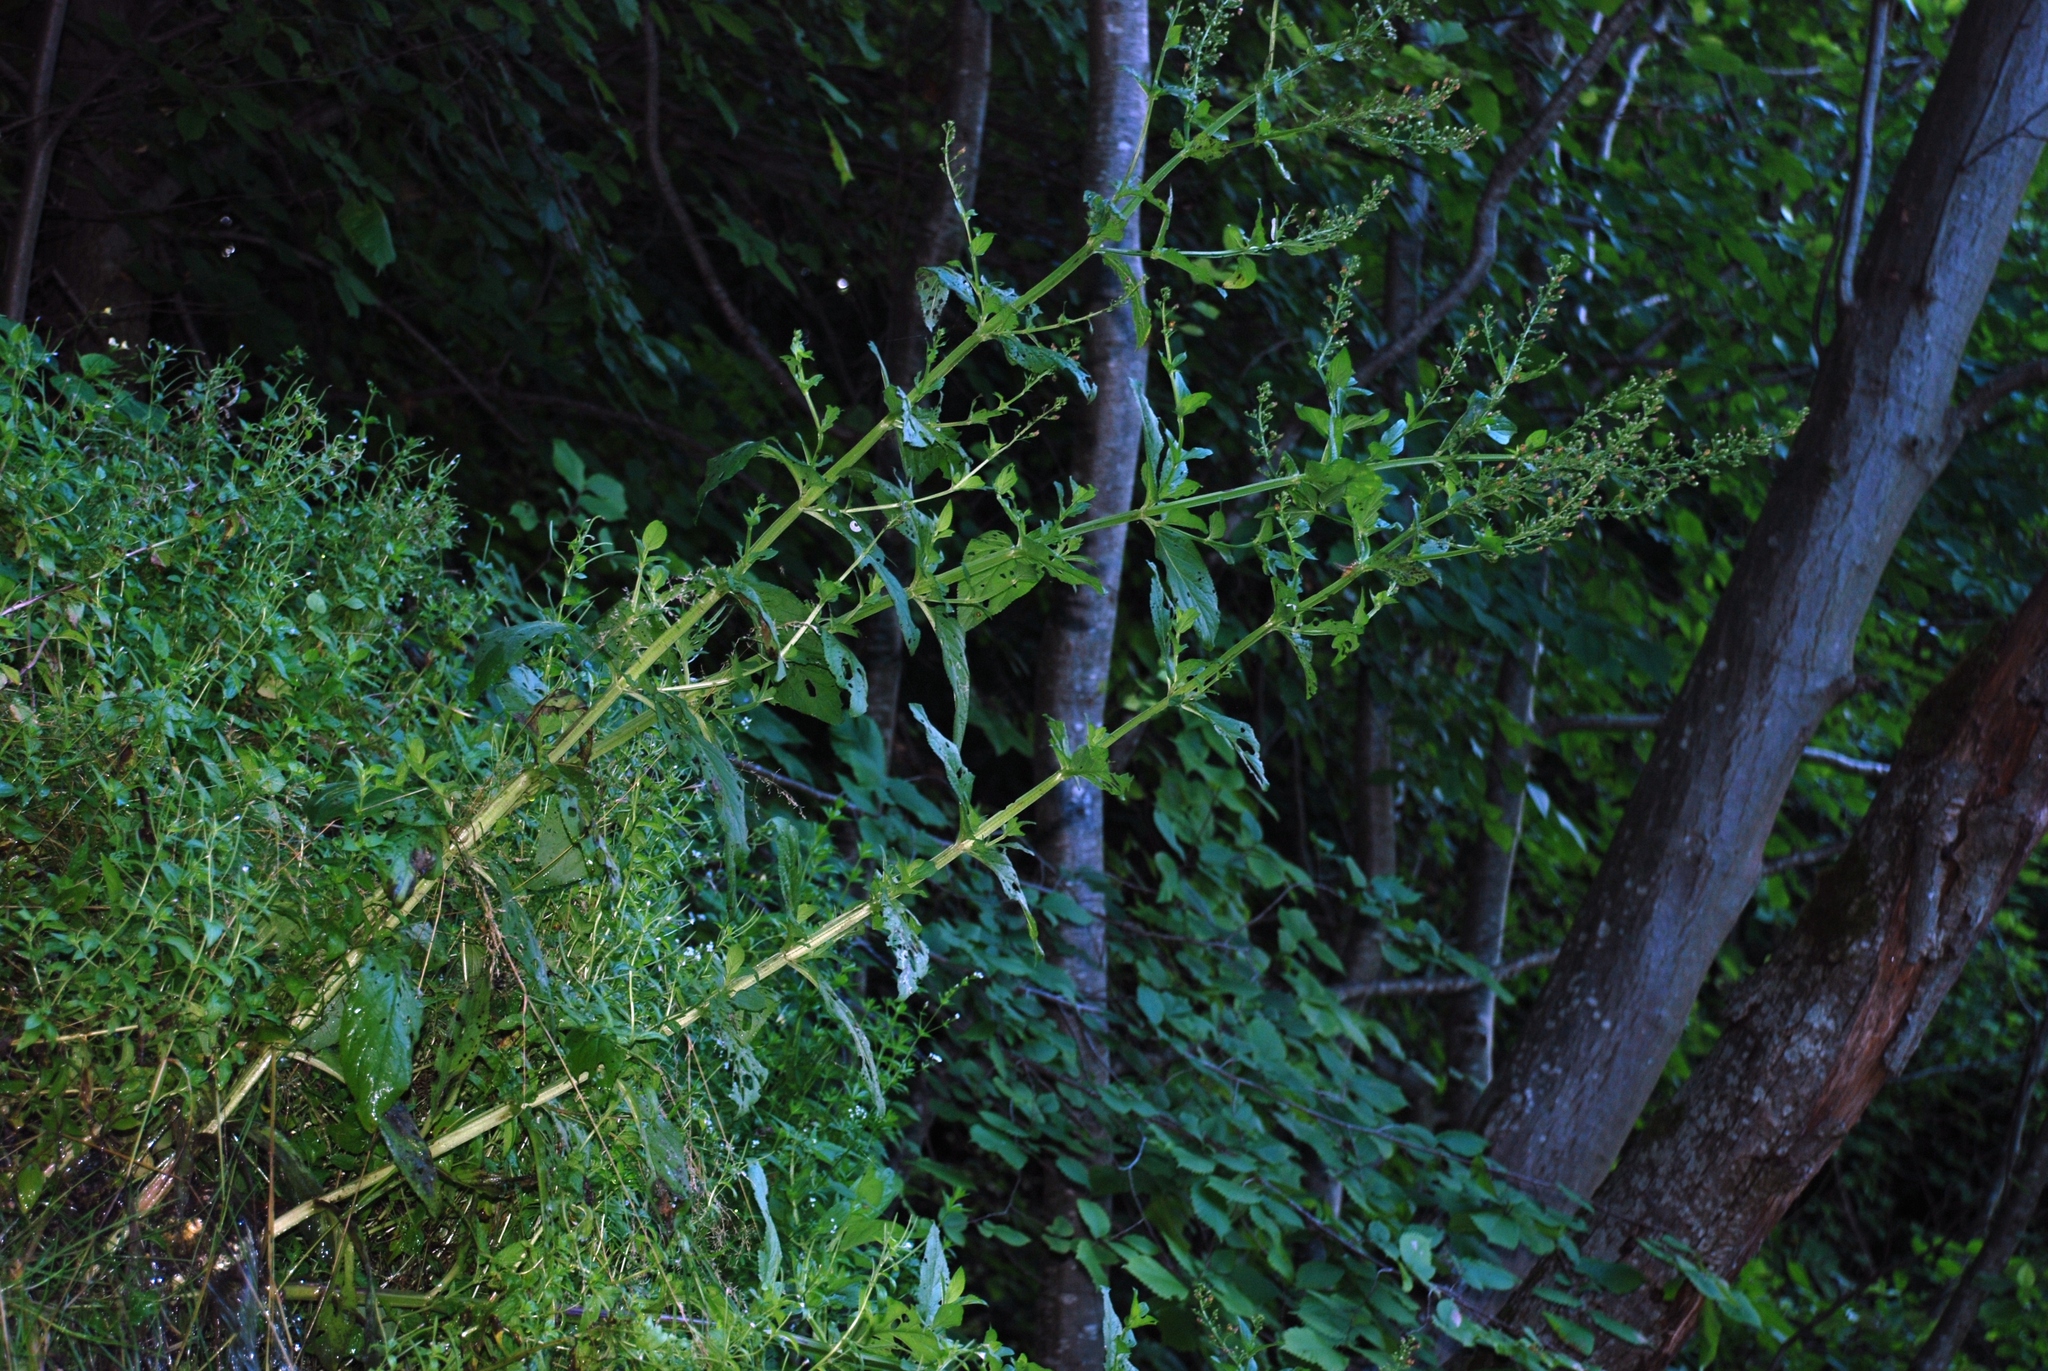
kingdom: Plantae
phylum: Tracheophyta
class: Magnoliopsida
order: Lamiales
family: Plantaginaceae
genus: Veronica
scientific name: Veronica anagallis-aquatica
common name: Water speedwell
